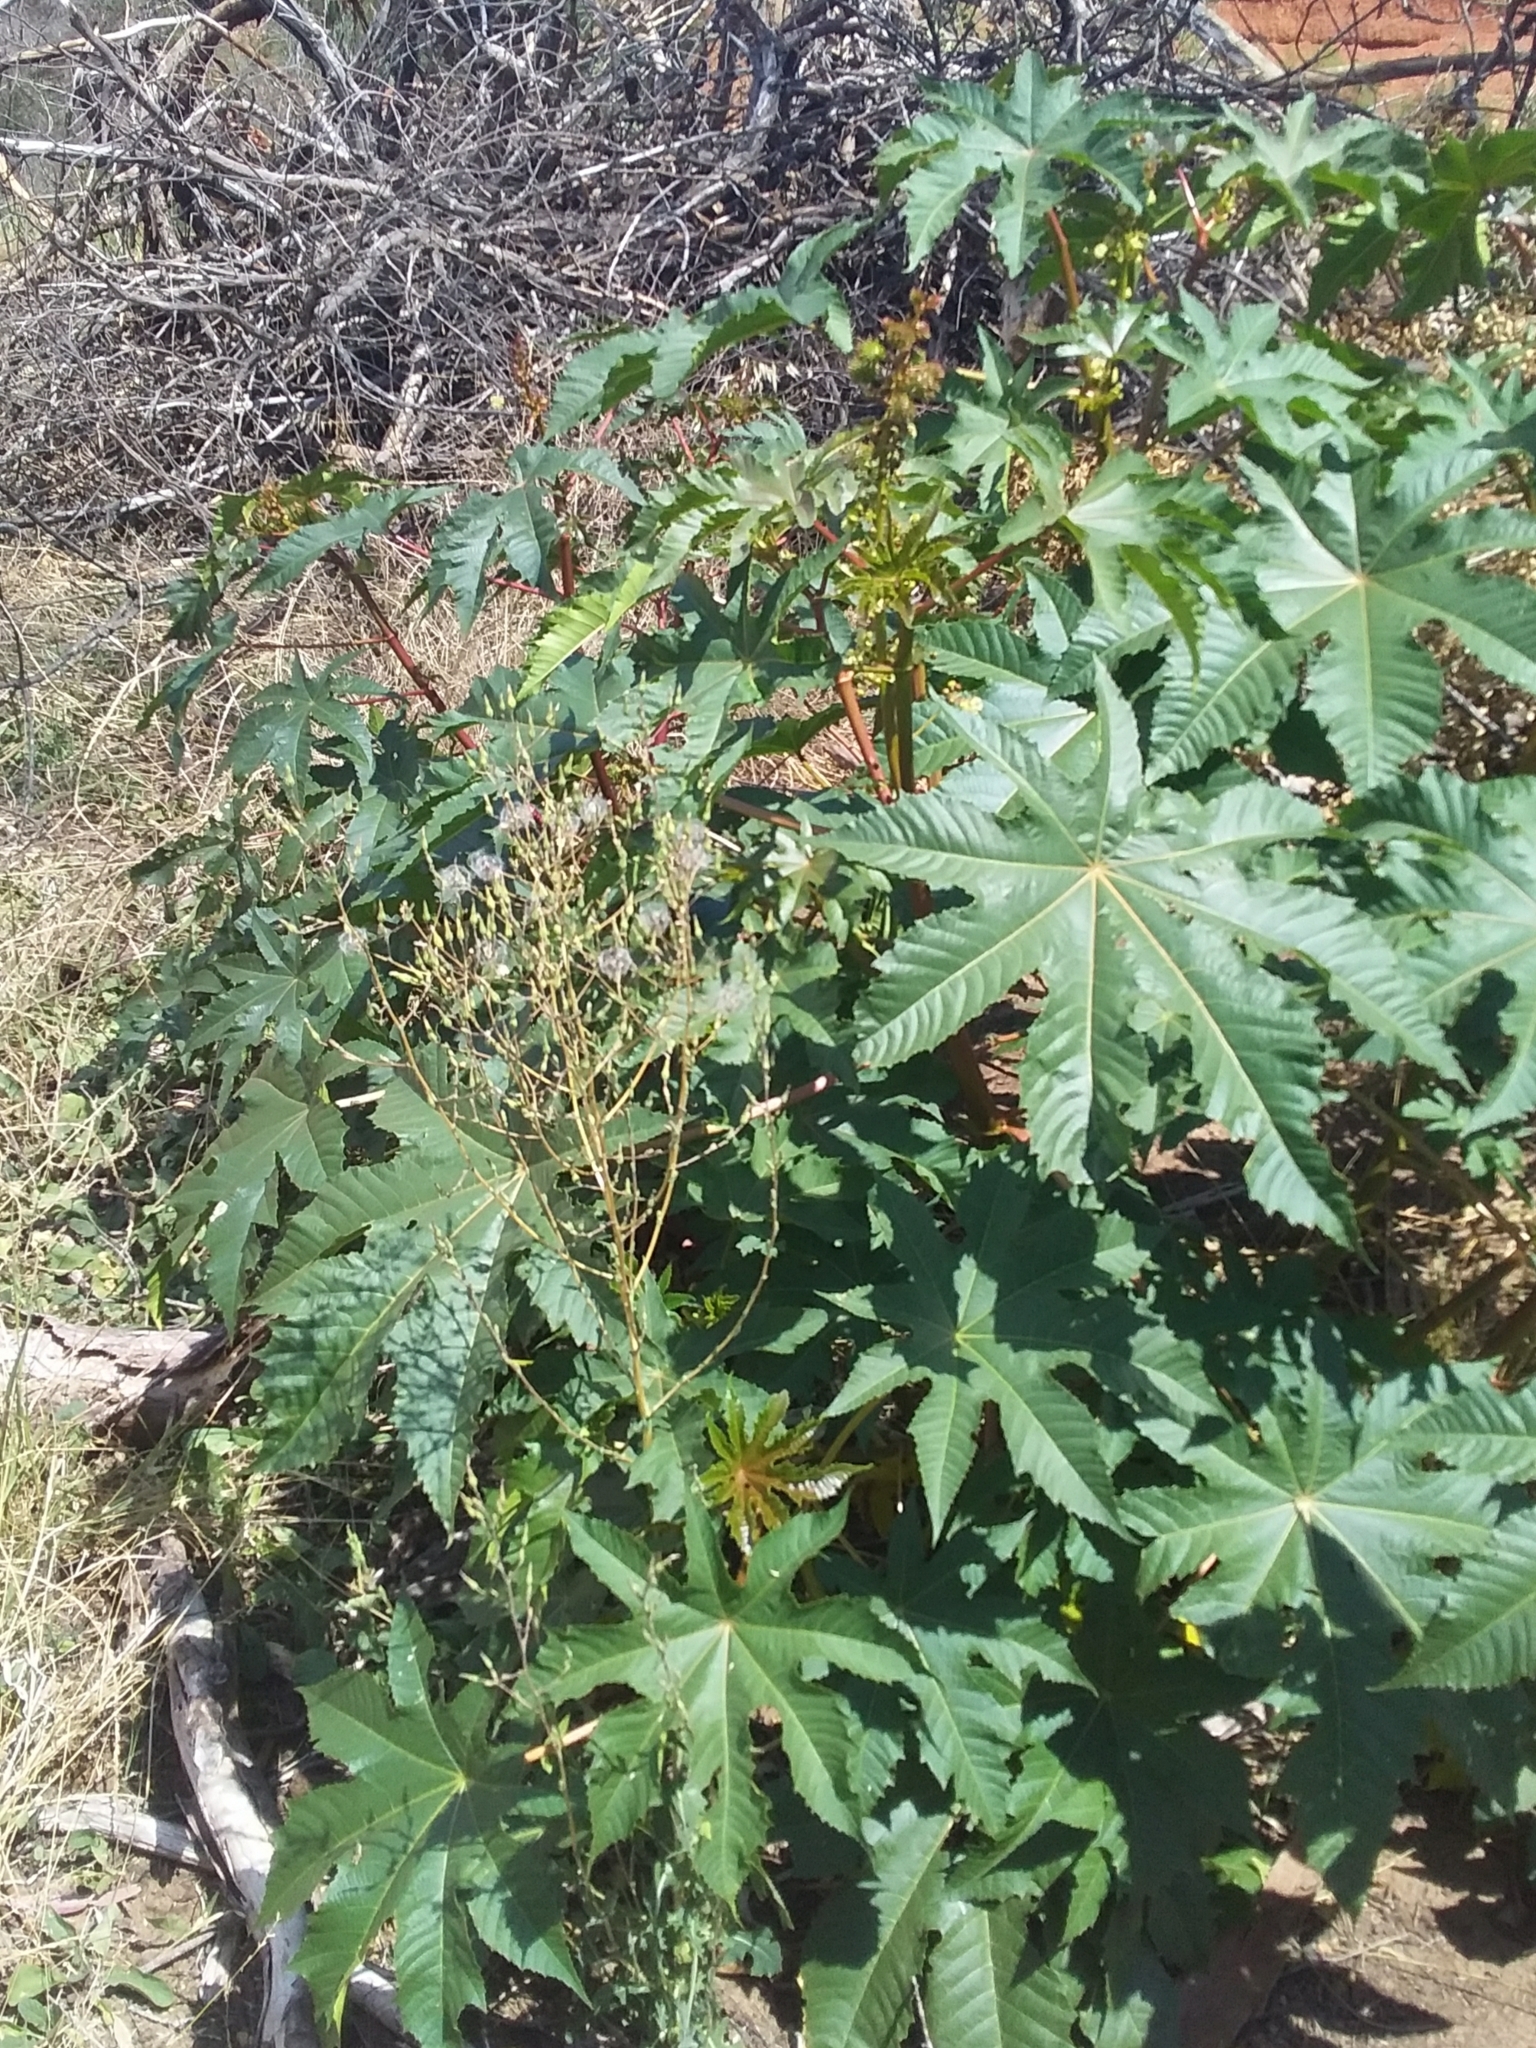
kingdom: Plantae
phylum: Tracheophyta
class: Magnoliopsida
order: Malpighiales
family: Euphorbiaceae
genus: Ricinus
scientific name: Ricinus communis
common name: Castor-oil-plant
